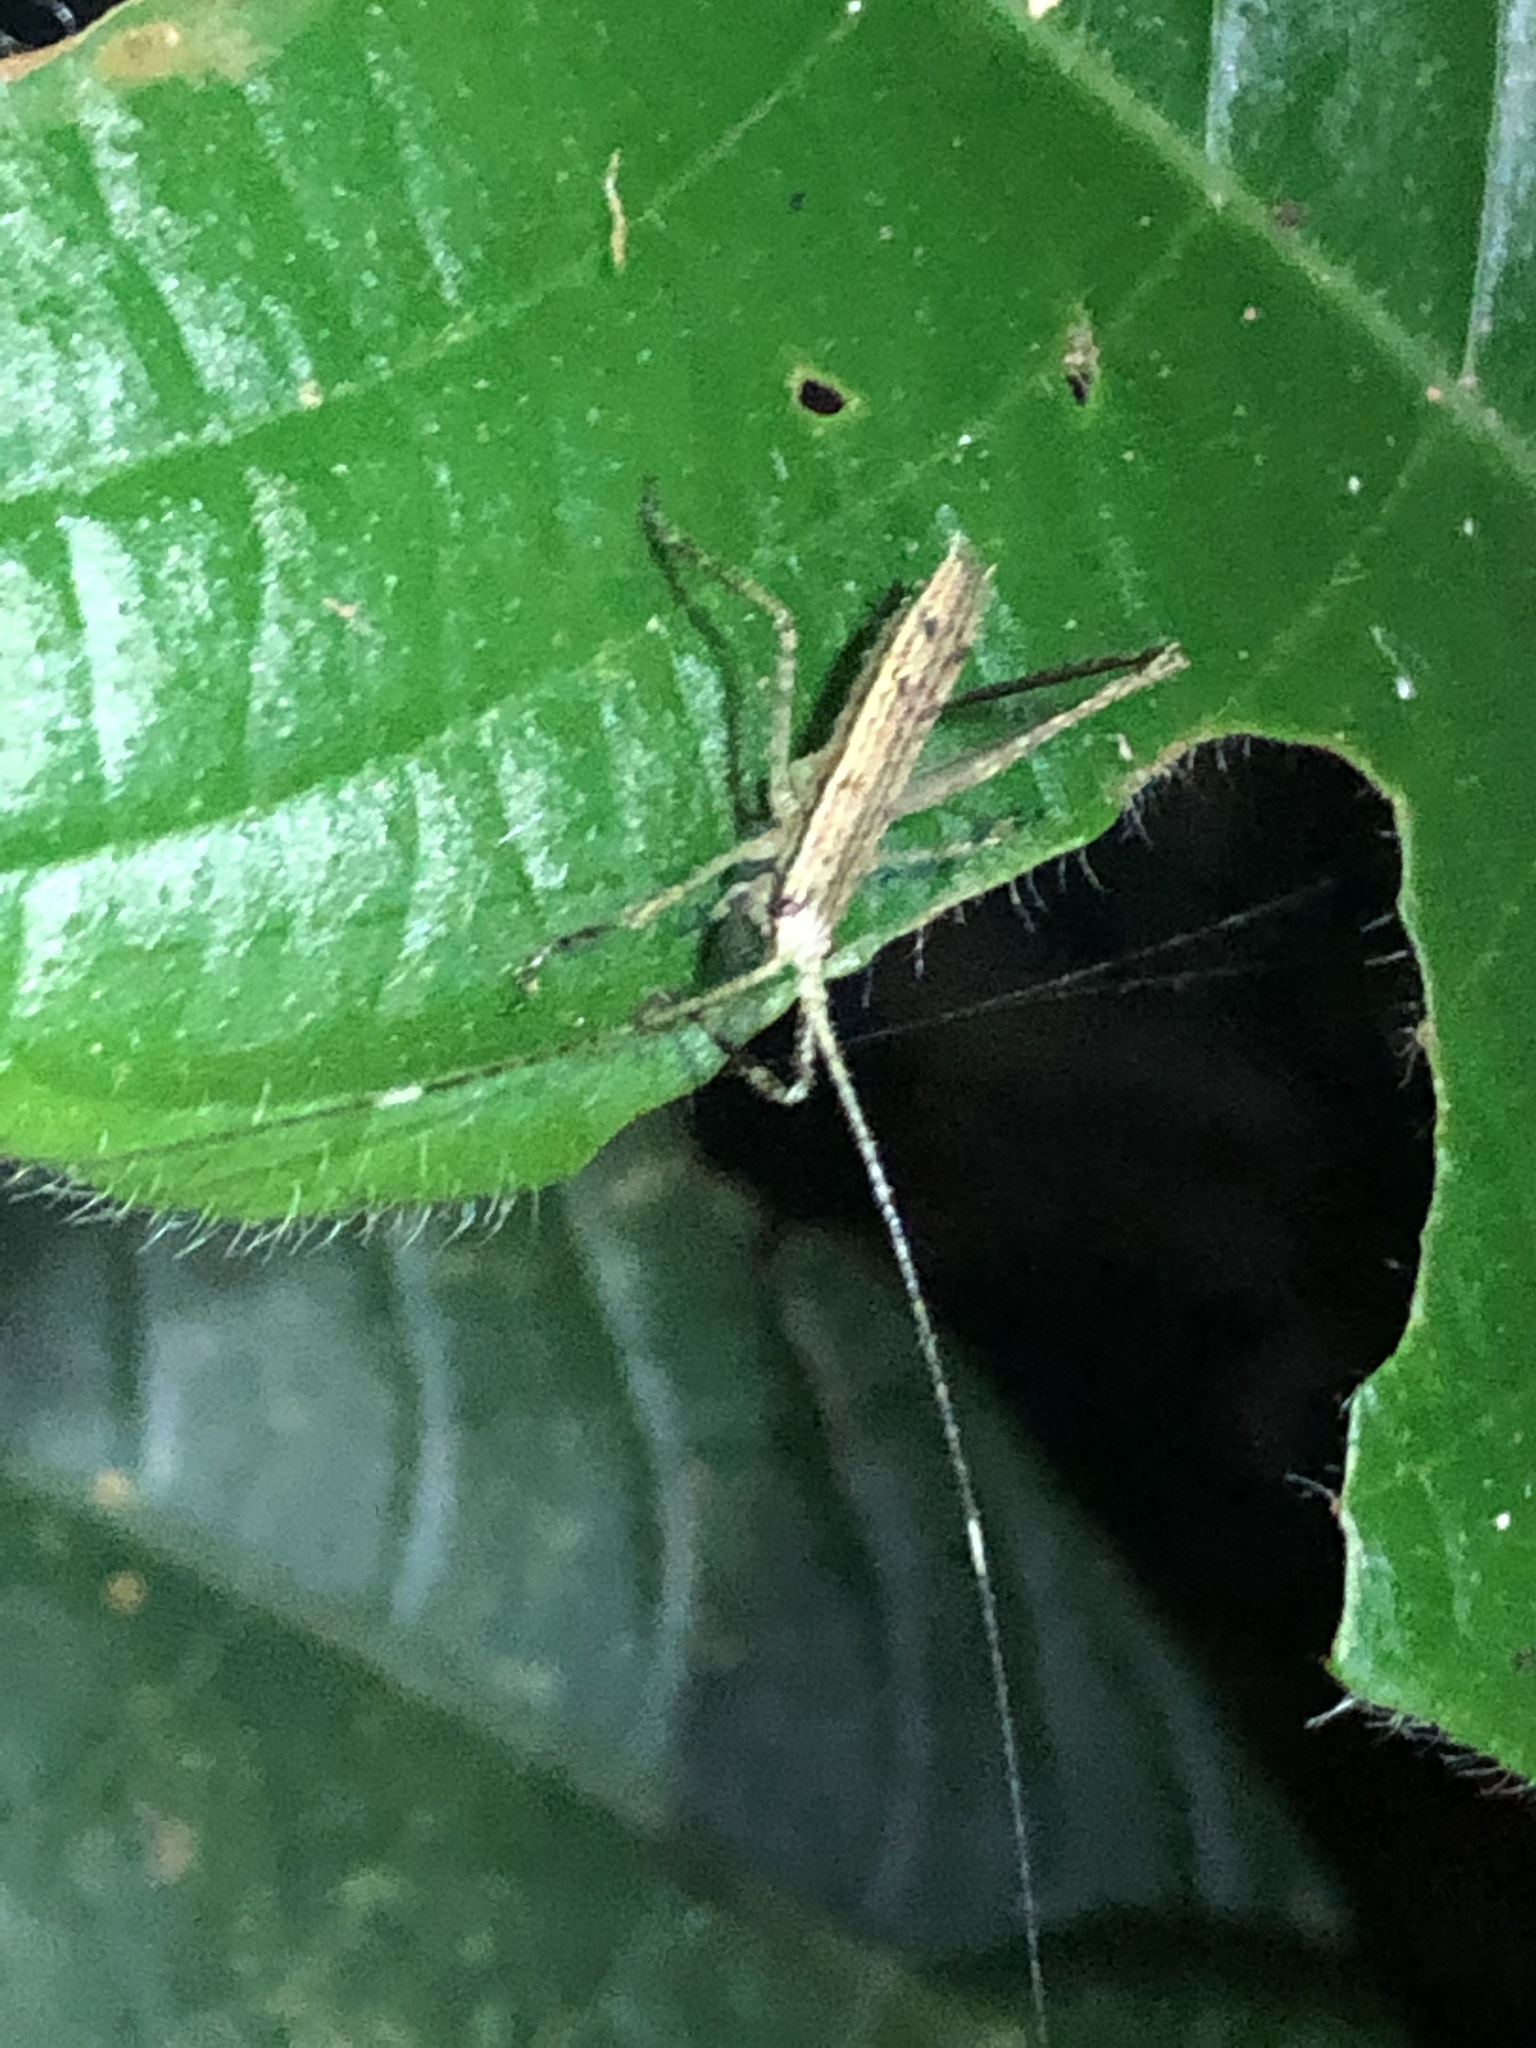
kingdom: Animalia
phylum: Arthropoda
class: Insecta
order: Orthoptera
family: Tettigoniidae
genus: Pedinothorax
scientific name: Pedinothorax exiguus
